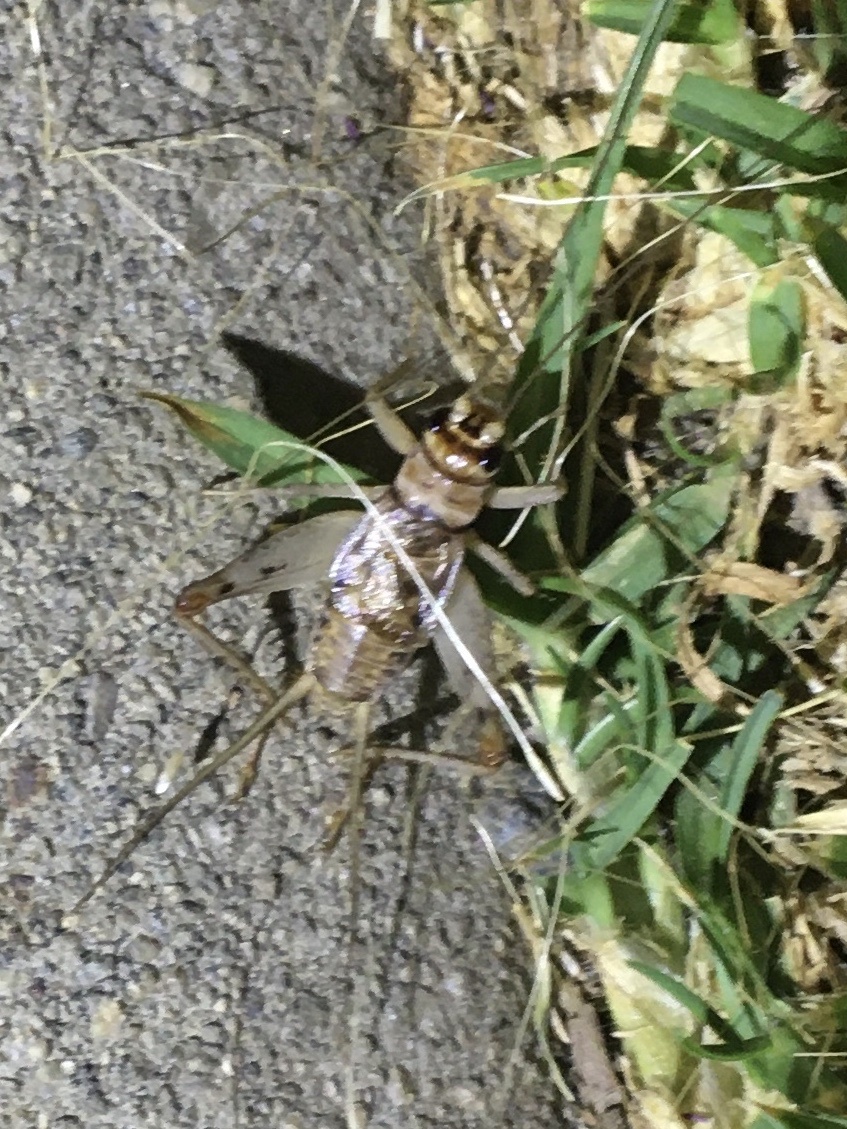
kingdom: Animalia
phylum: Arthropoda
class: Insecta
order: Orthoptera
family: Gryllidae
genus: Gryllodes
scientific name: Gryllodes sigillatus
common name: Tropical house cricket
